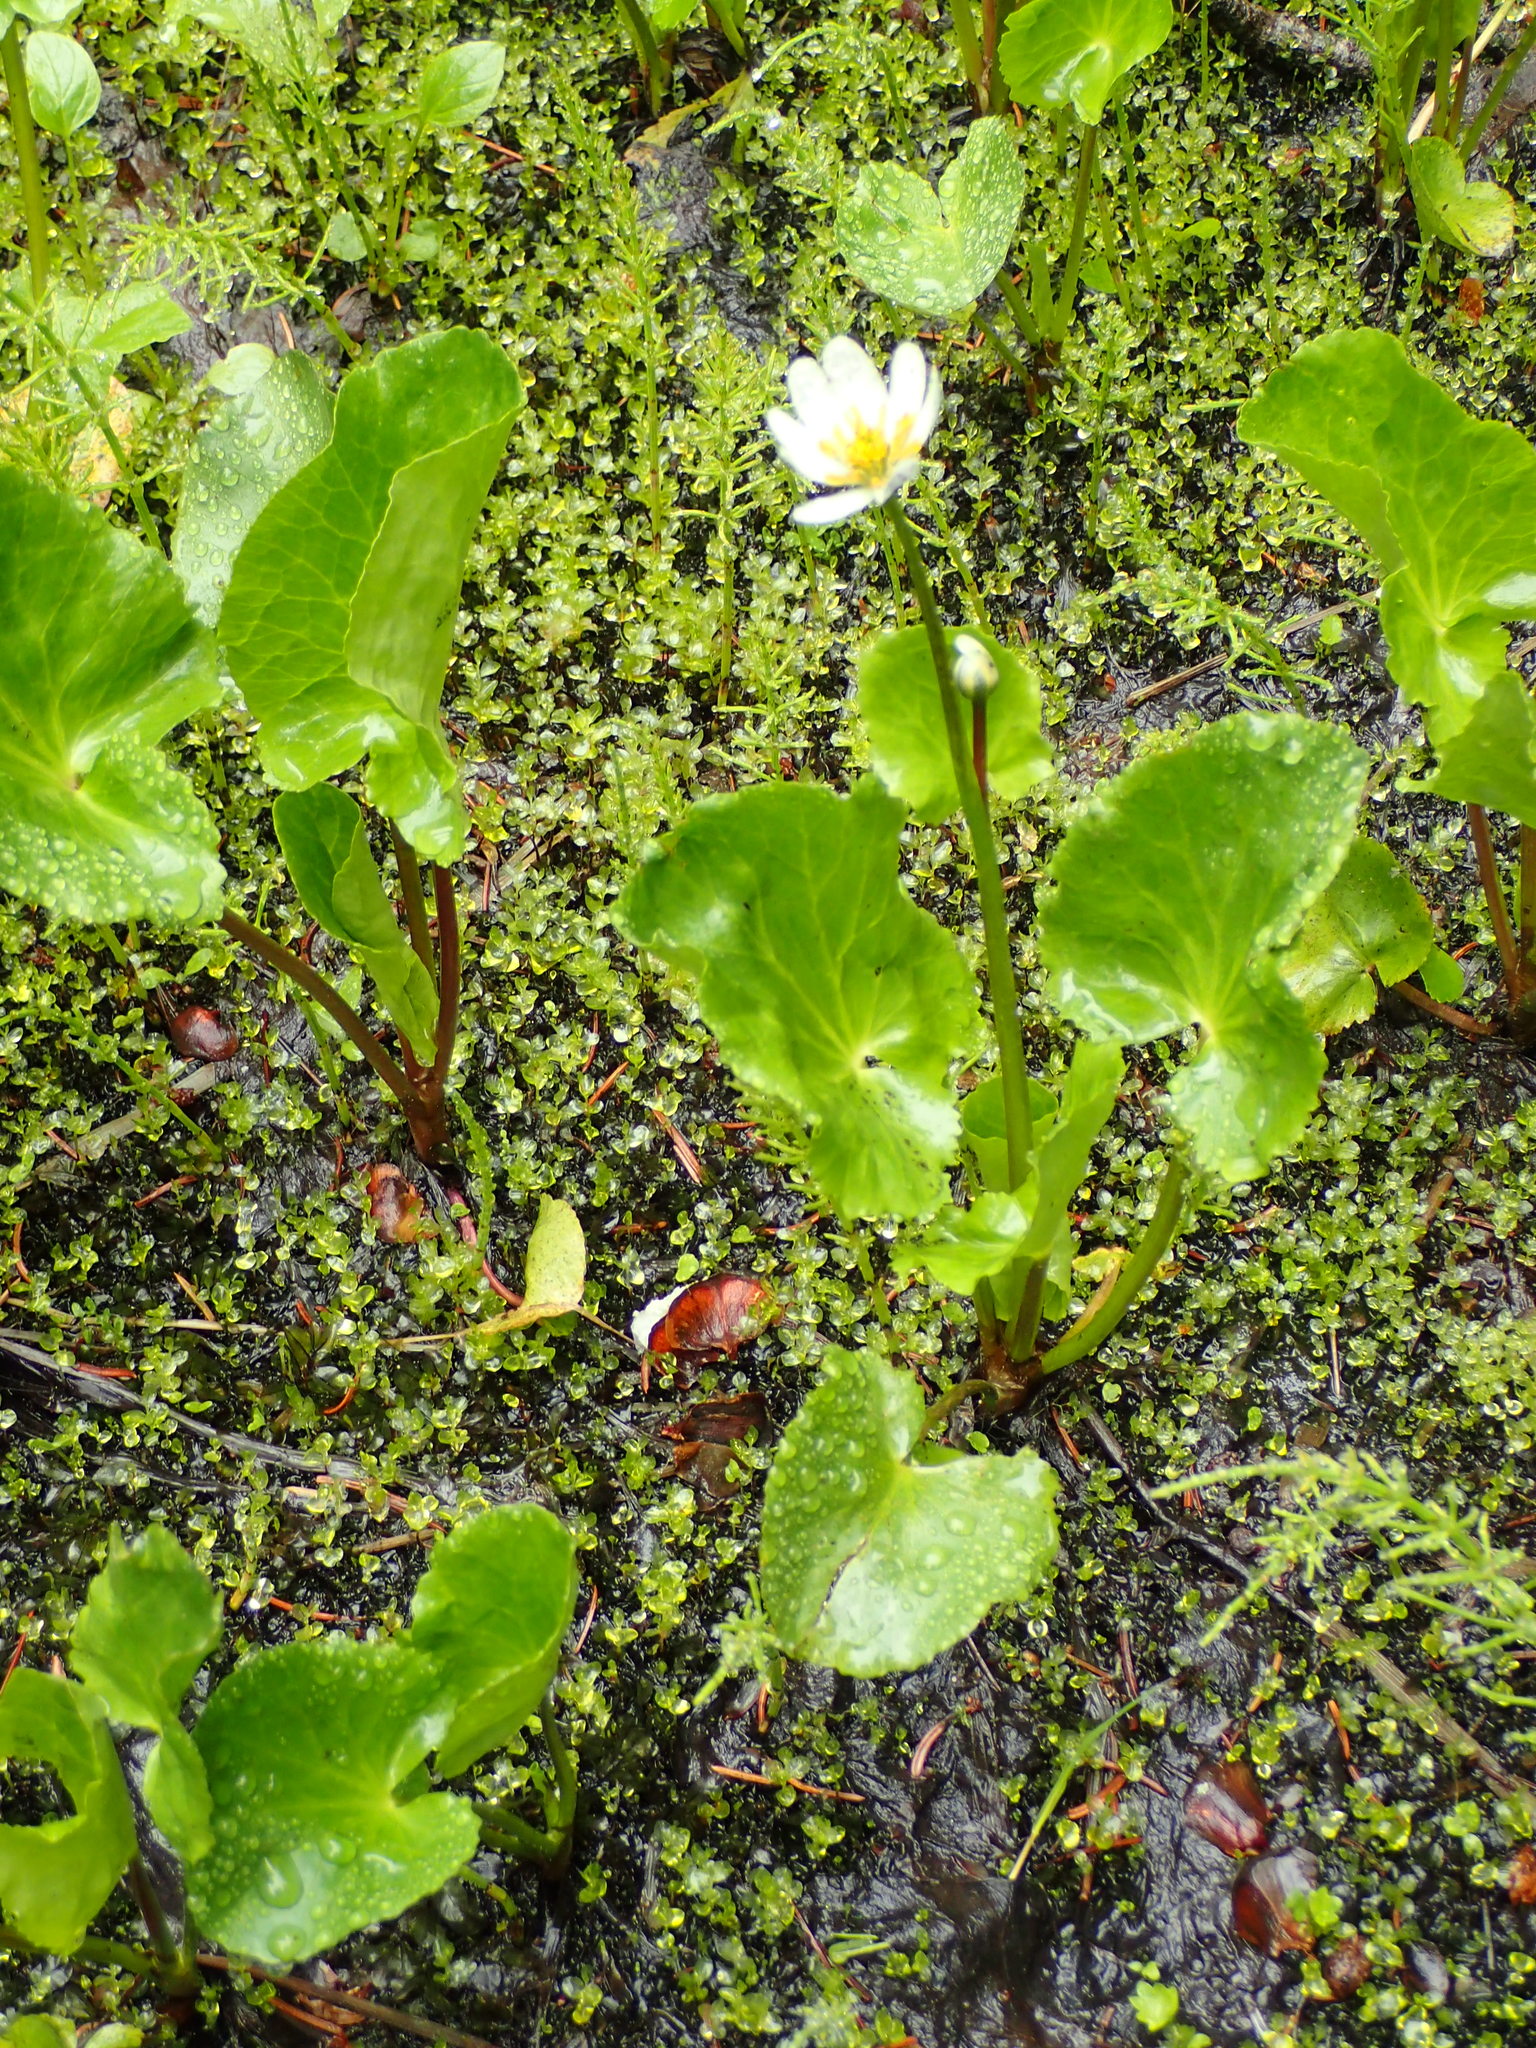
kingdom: Plantae
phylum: Tracheophyta
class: Magnoliopsida
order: Ranunculales
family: Ranunculaceae
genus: Caltha
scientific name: Caltha biflora
